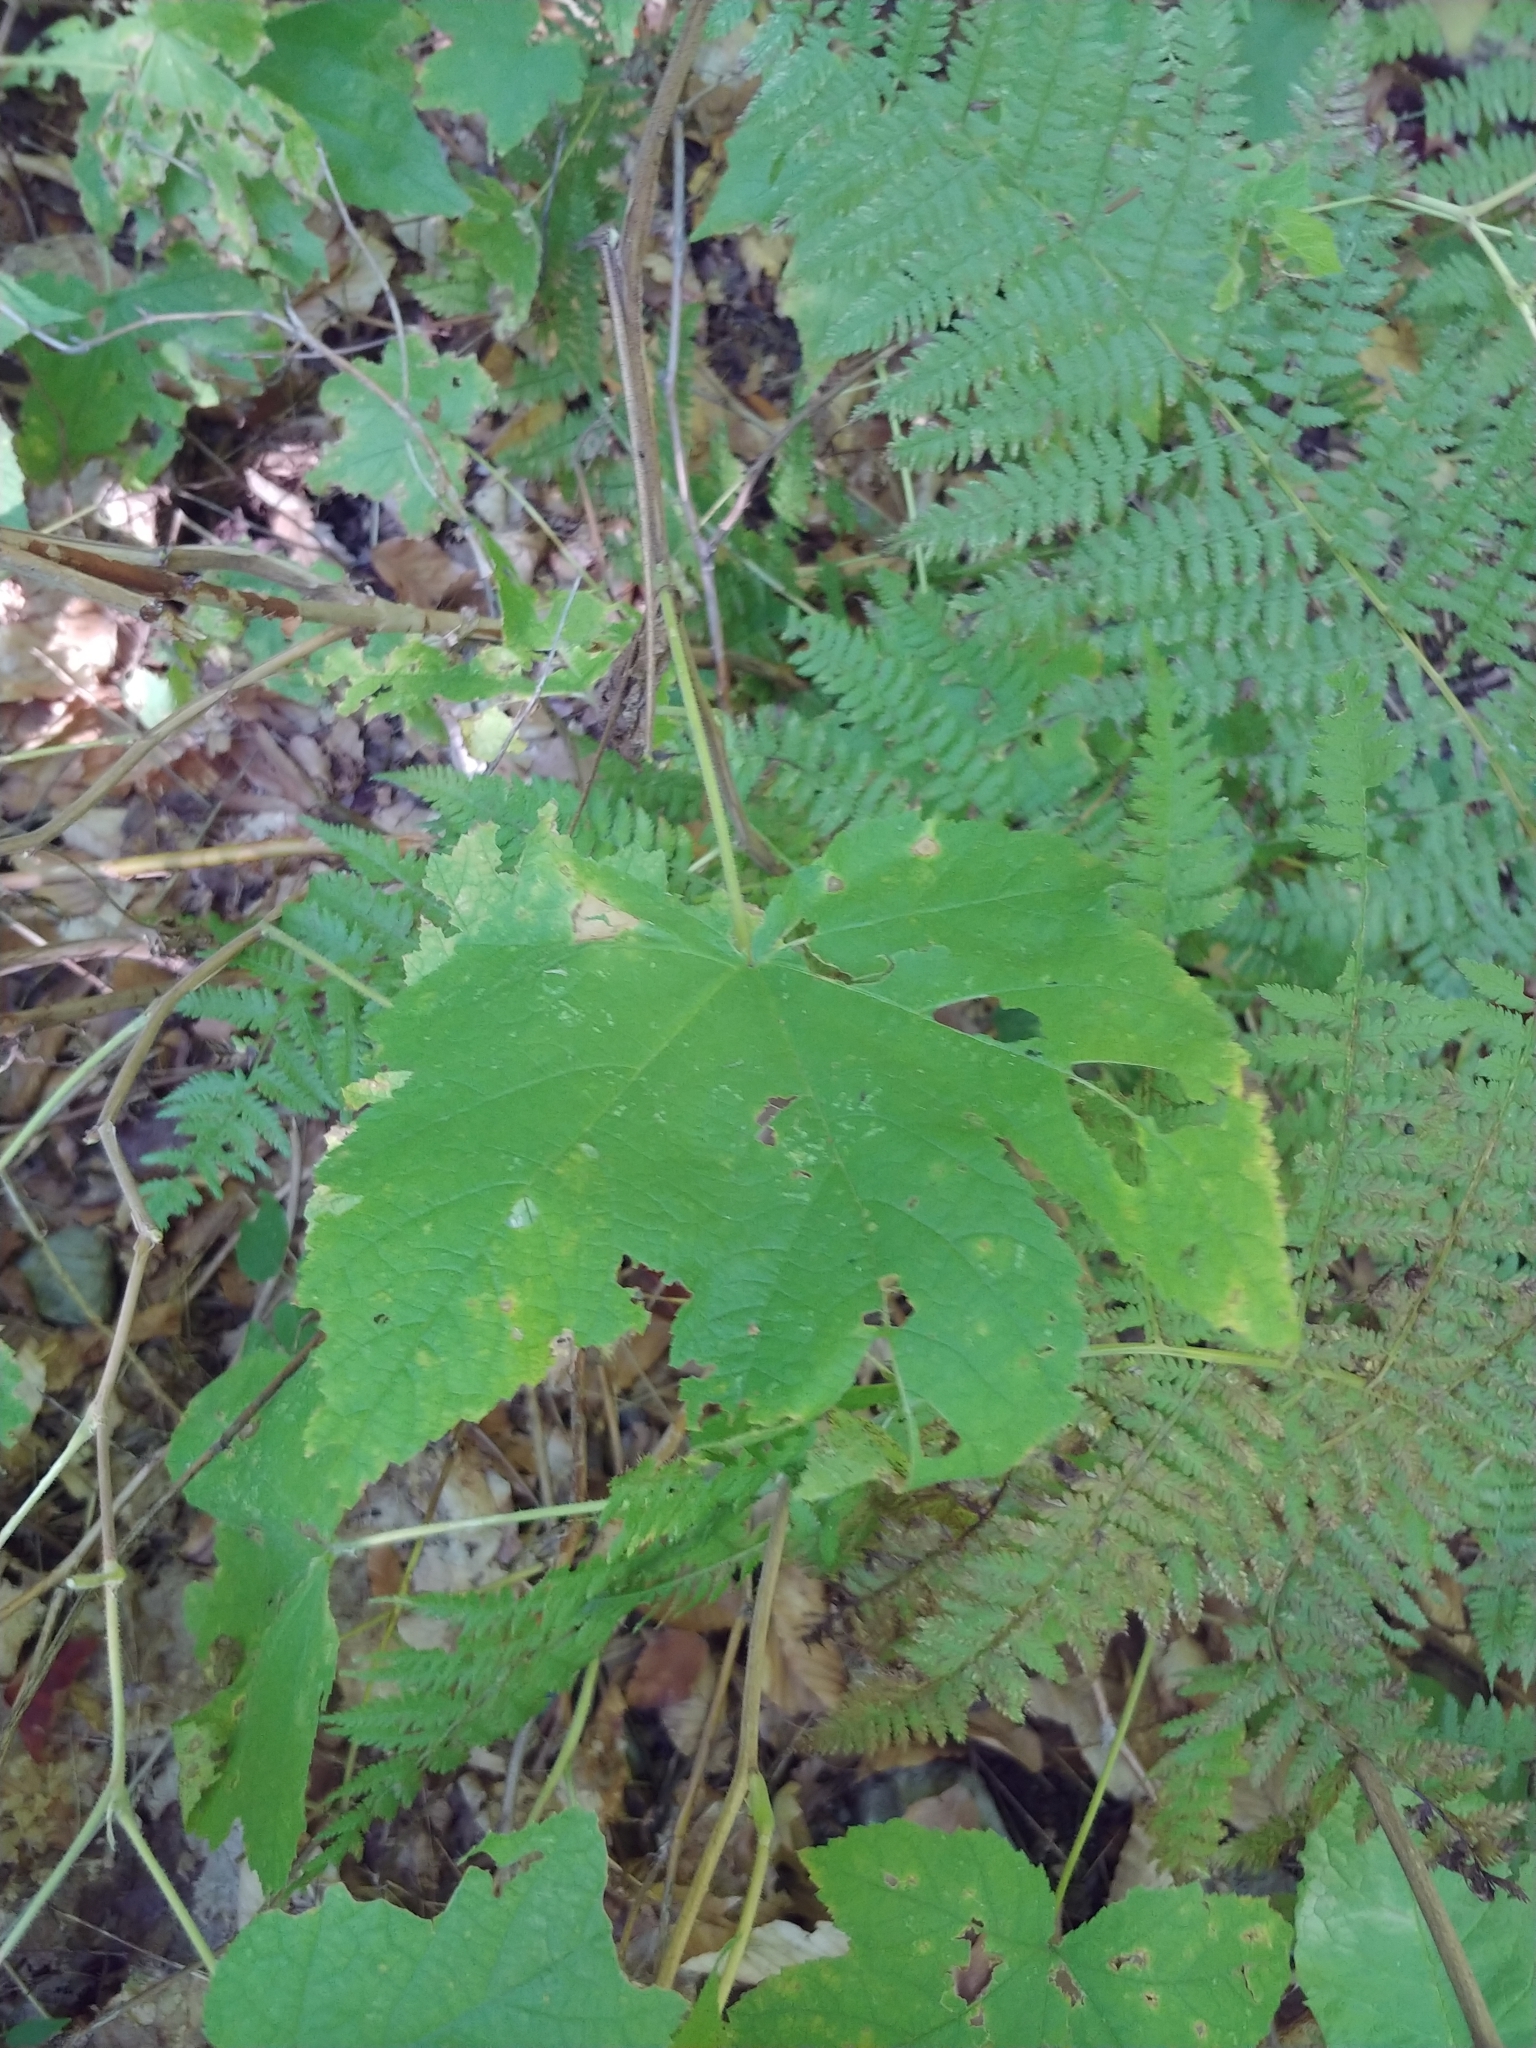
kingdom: Plantae
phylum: Tracheophyta
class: Magnoliopsida
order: Rosales
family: Rosaceae
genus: Rubus
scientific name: Rubus odoratus
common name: Purple-flowered raspberry
